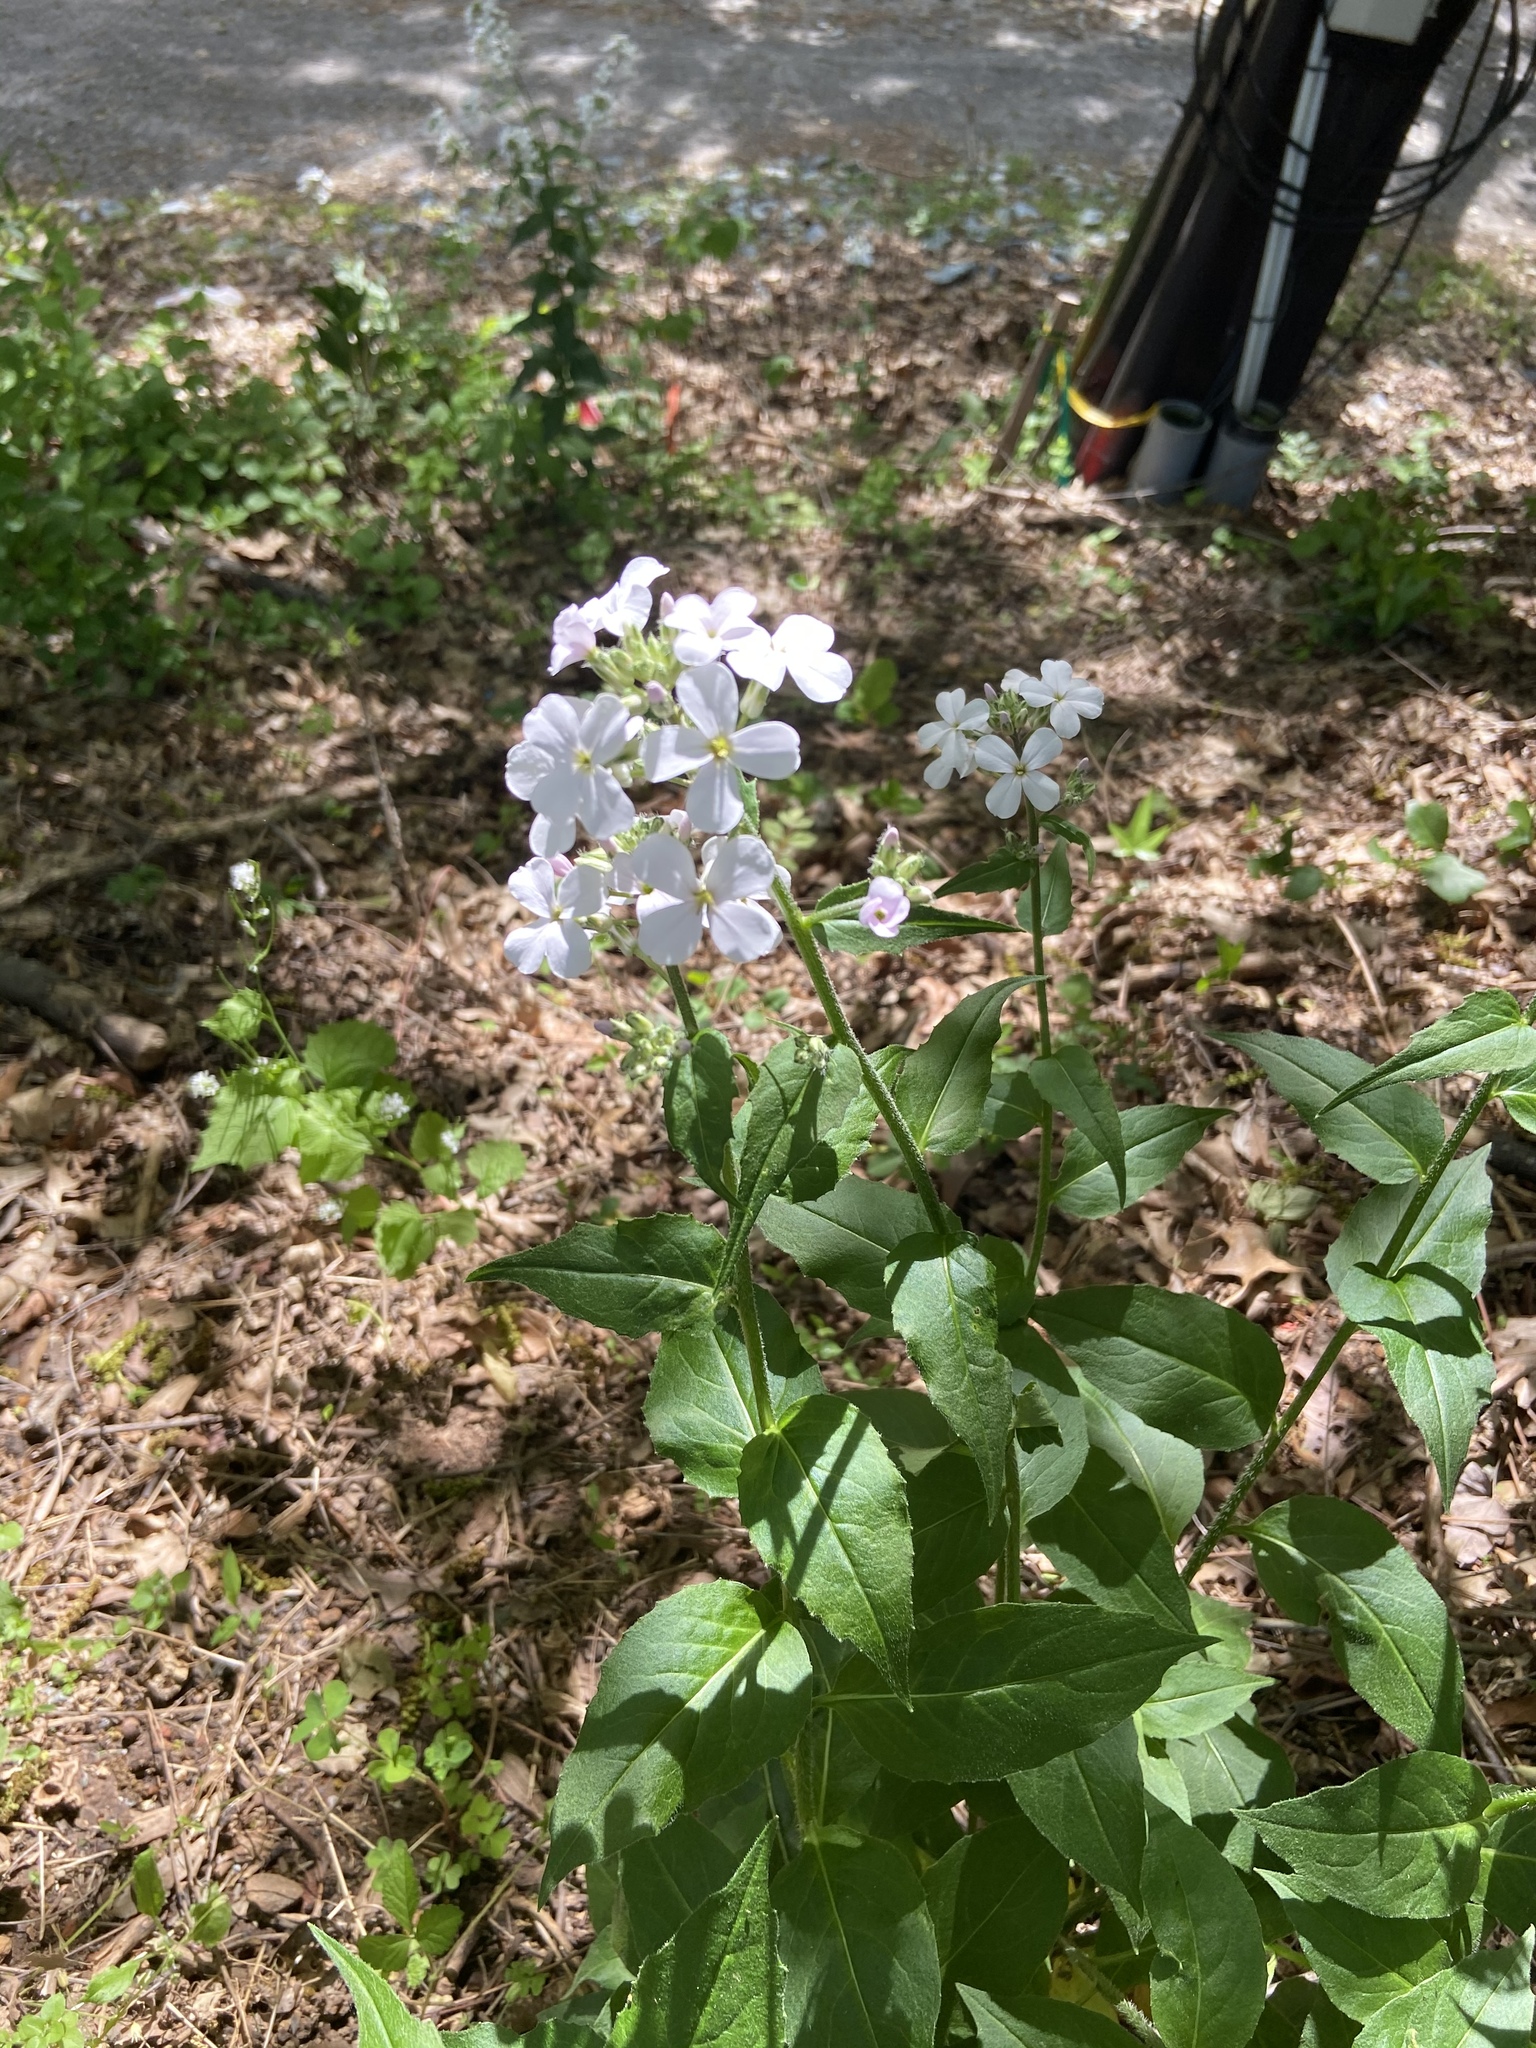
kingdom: Plantae
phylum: Tracheophyta
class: Magnoliopsida
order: Brassicales
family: Brassicaceae
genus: Hesperis
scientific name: Hesperis matronalis
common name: Dame's-violet
